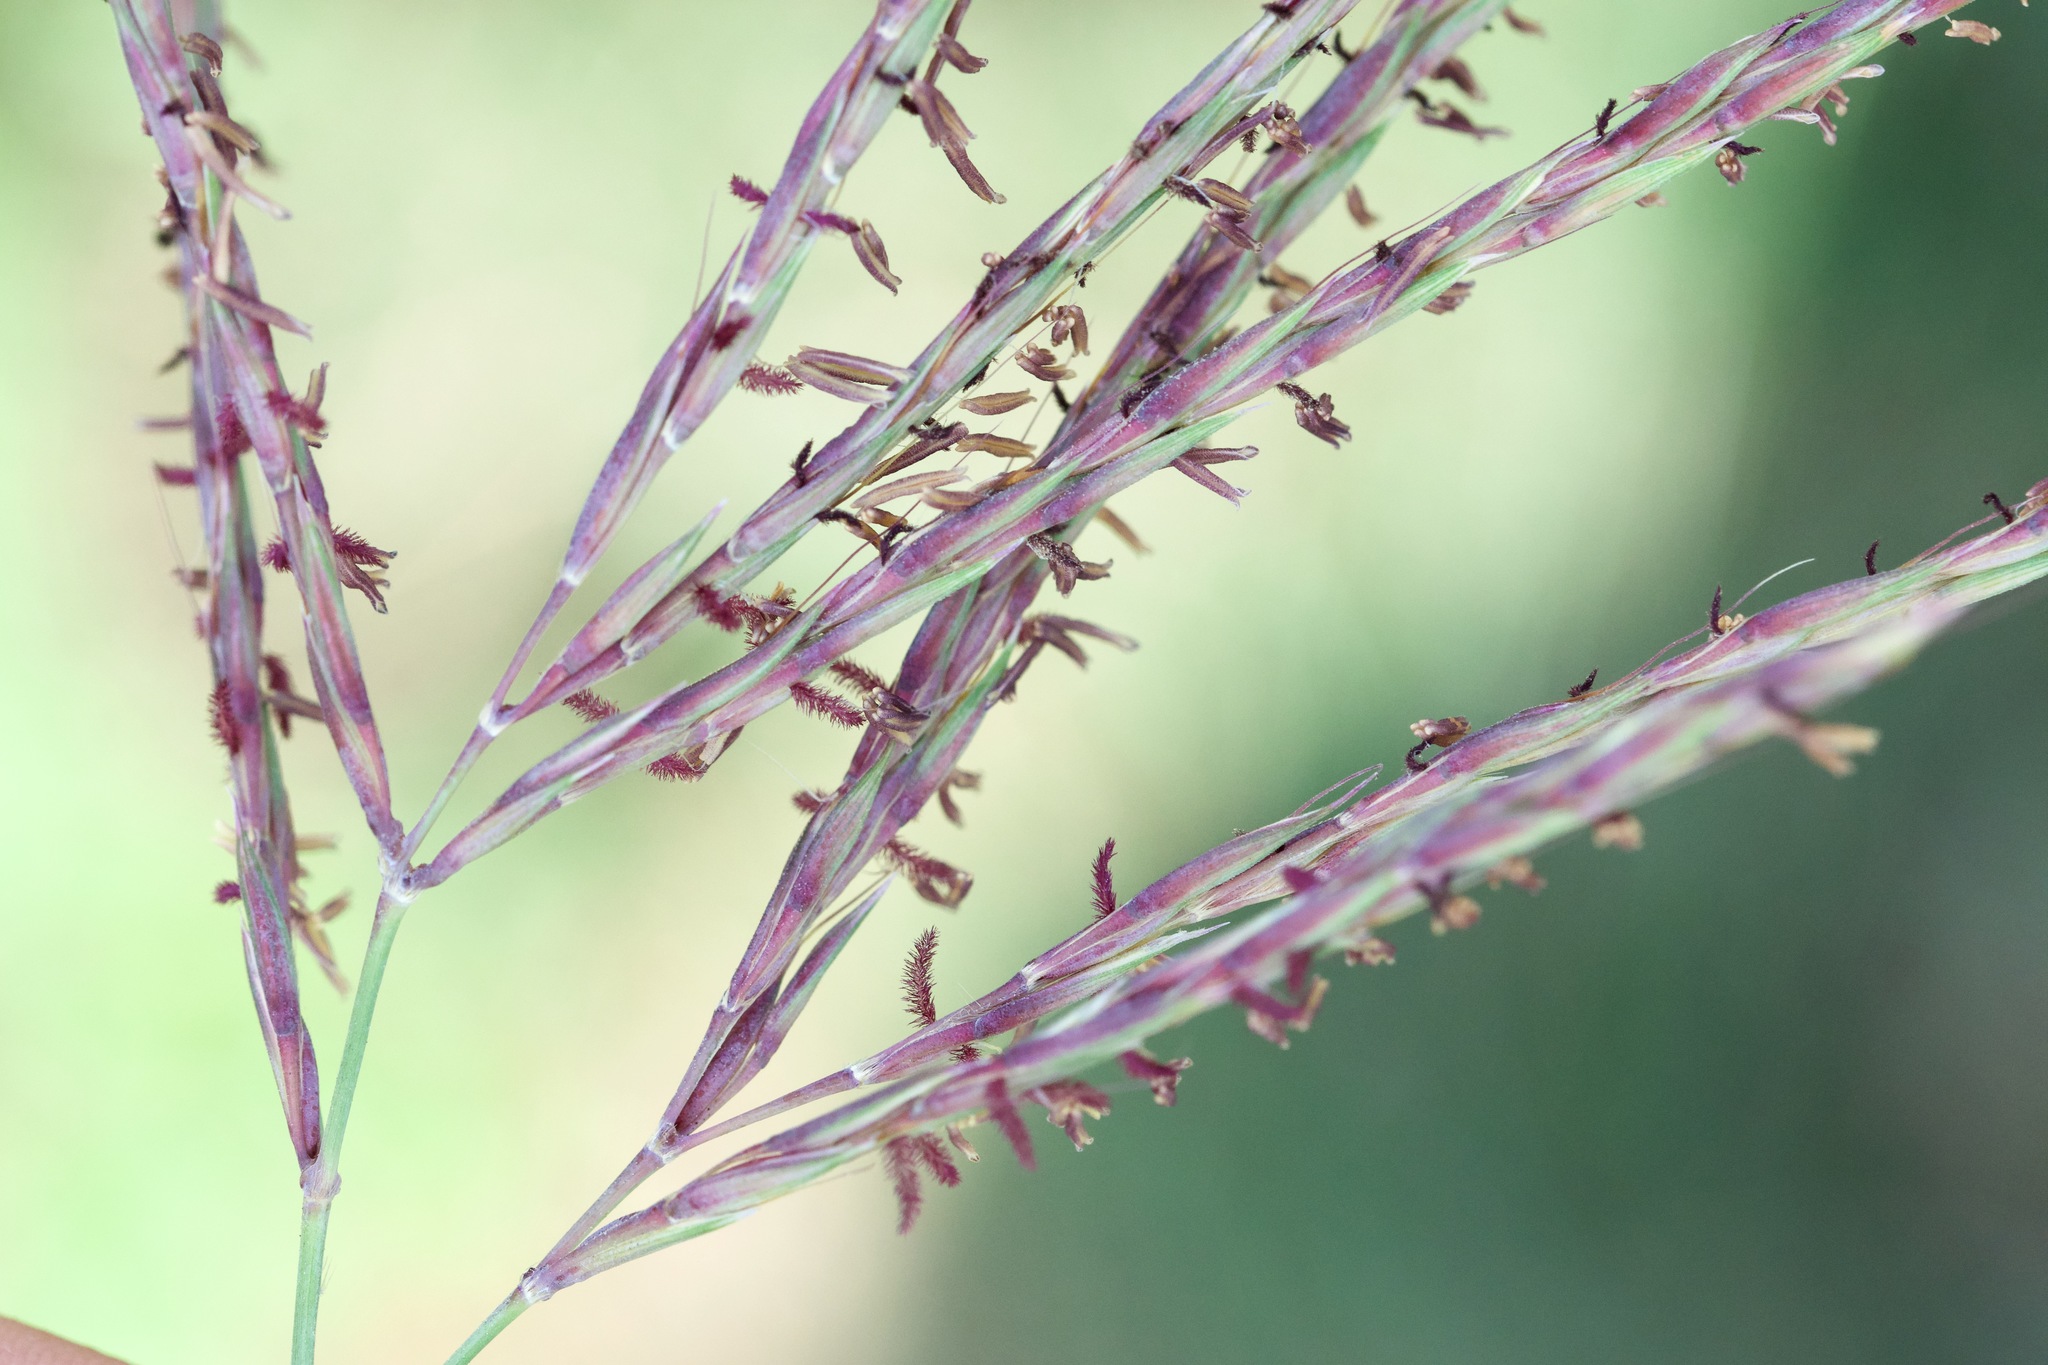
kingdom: Plantae
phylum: Tracheophyta
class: Liliopsida
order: Poales
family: Poaceae
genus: Andropogon
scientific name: Andropogon gerardi
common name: Big bluestem
